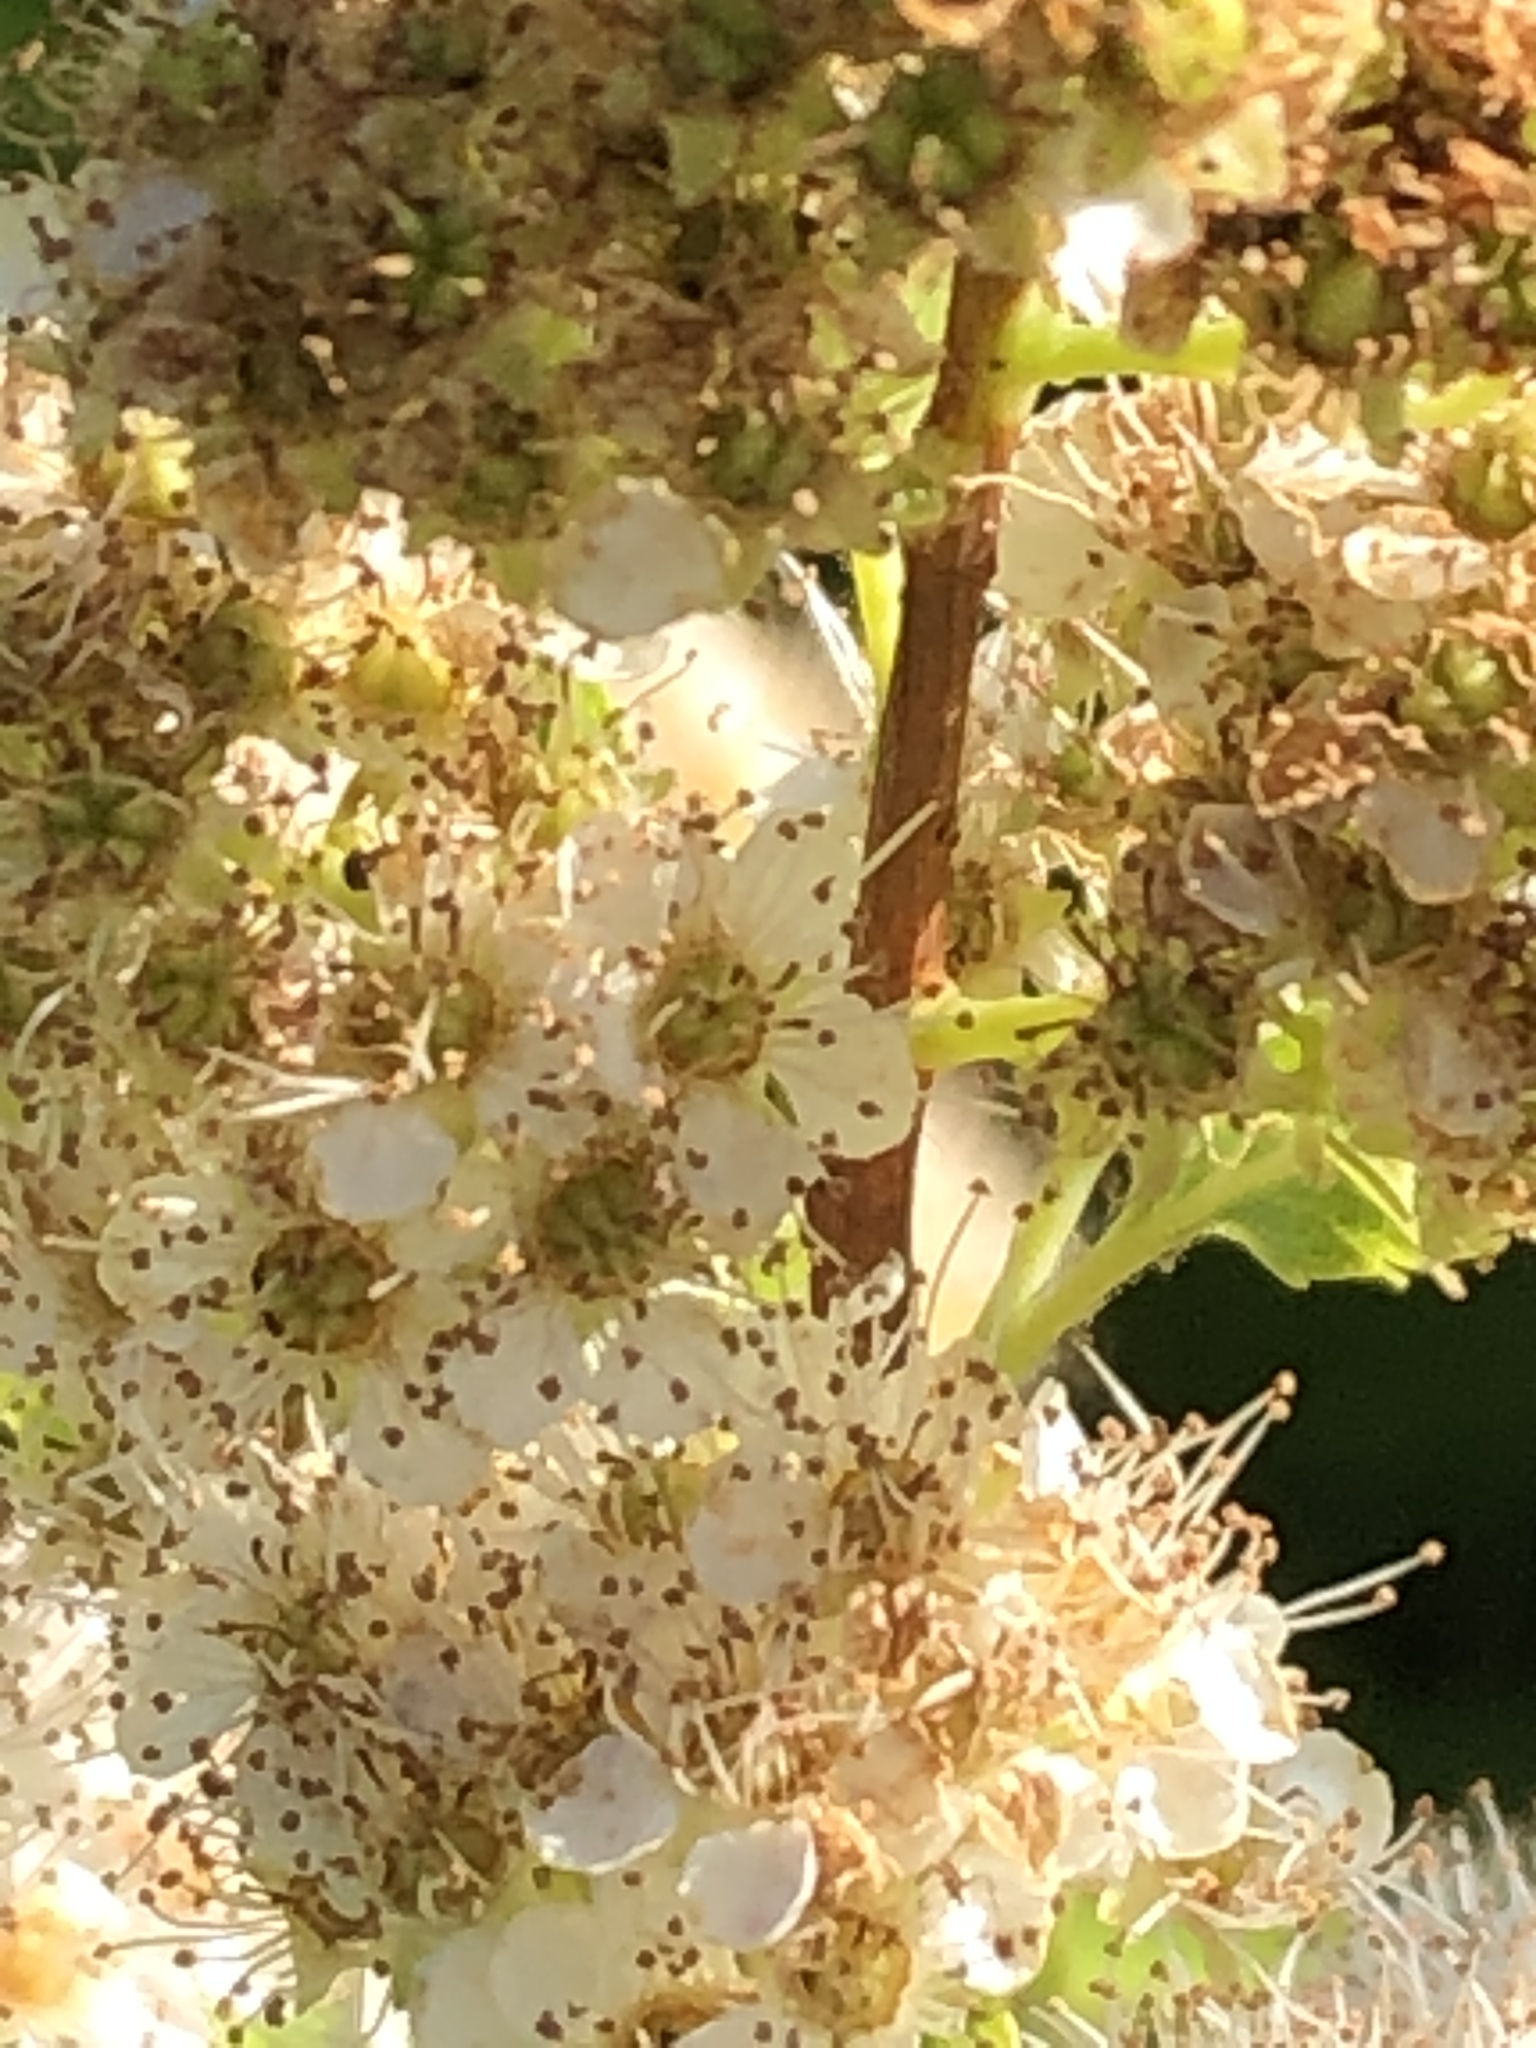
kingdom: Plantae
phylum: Tracheophyta
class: Magnoliopsida
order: Rosales
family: Rosaceae
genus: Spiraea
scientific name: Spiraea alba
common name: Pale bridewort
